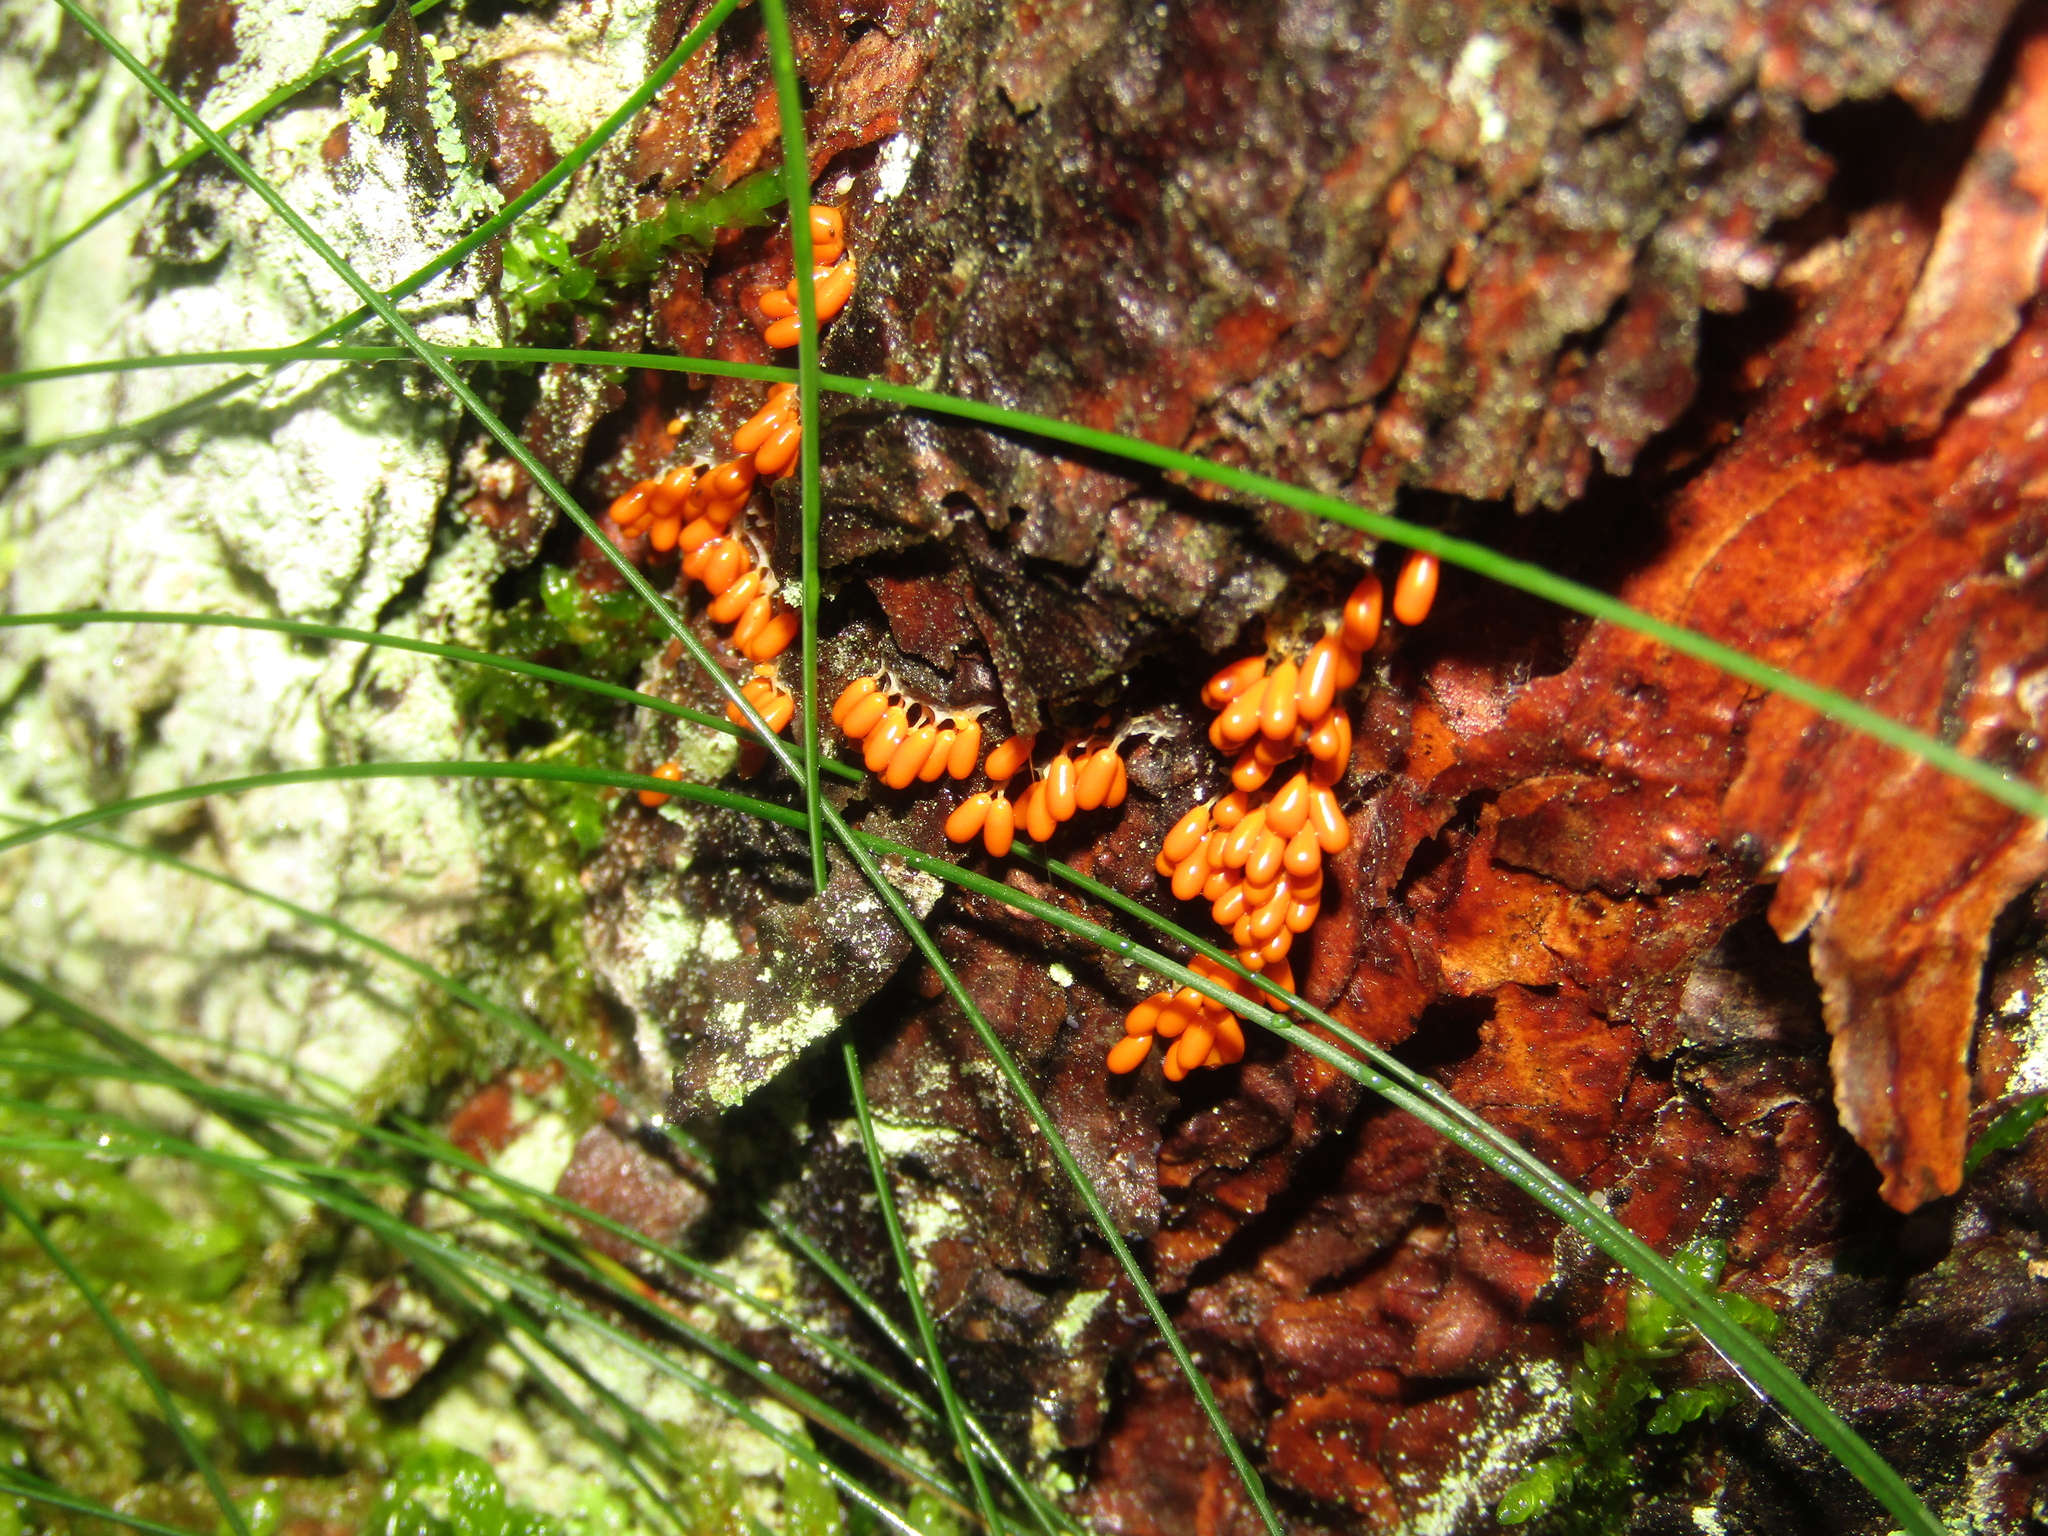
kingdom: Protozoa
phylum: Mycetozoa
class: Myxomycetes
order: Physarales
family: Physaraceae
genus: Leocarpus
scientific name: Leocarpus fragilis
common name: Insect-egg slime
